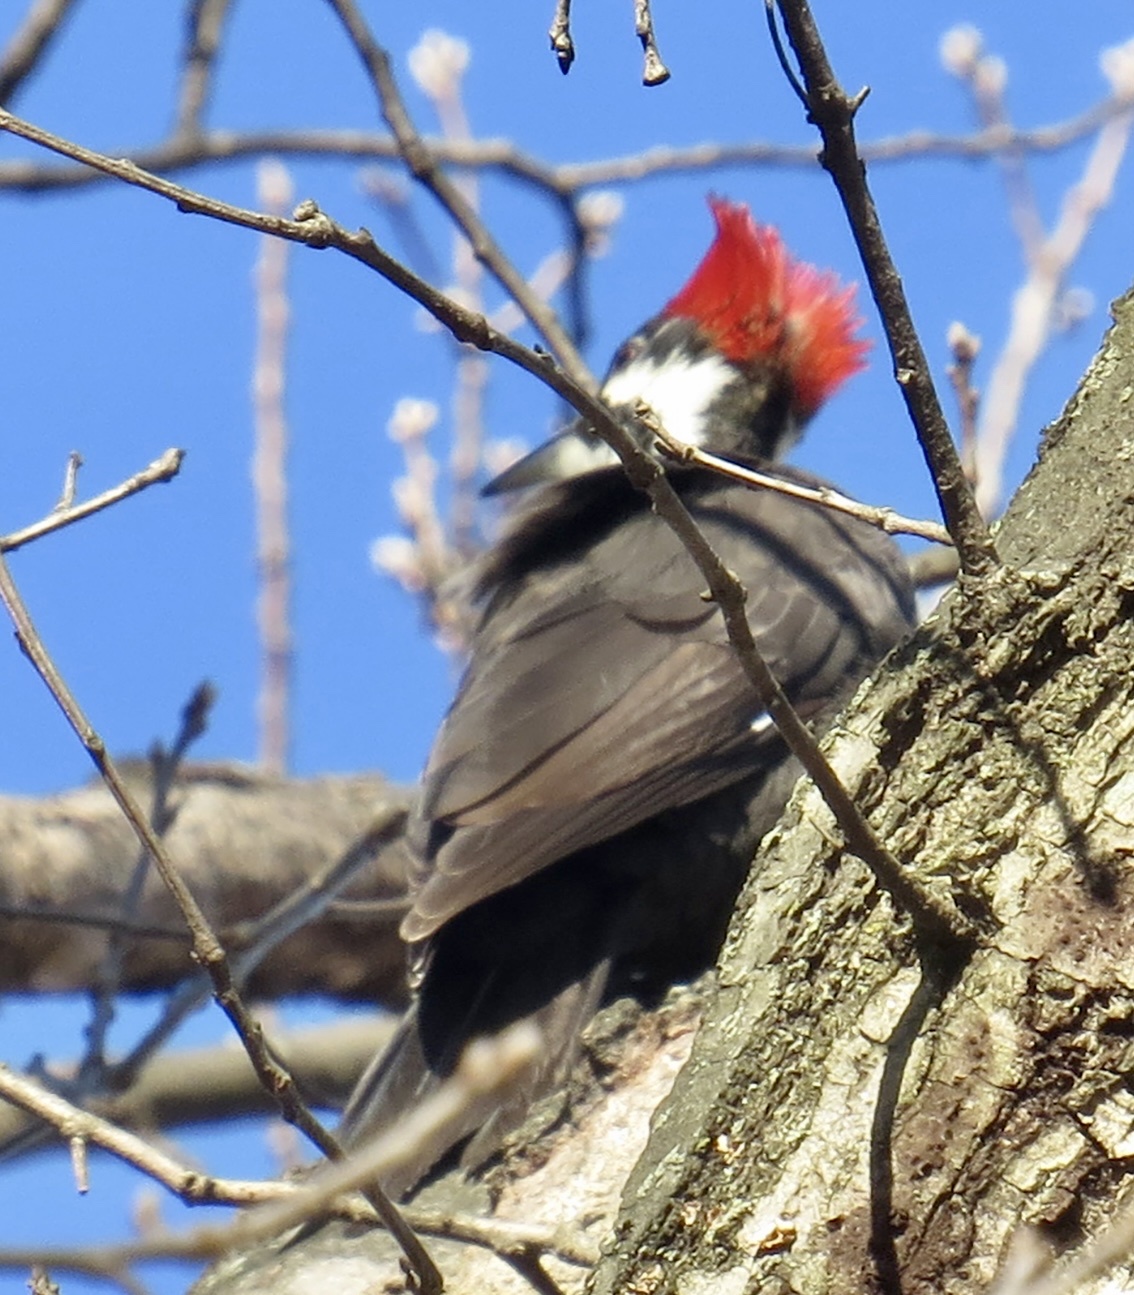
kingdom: Animalia
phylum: Chordata
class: Aves
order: Piciformes
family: Picidae
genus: Dryocopus
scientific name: Dryocopus pileatus
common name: Pileated woodpecker
